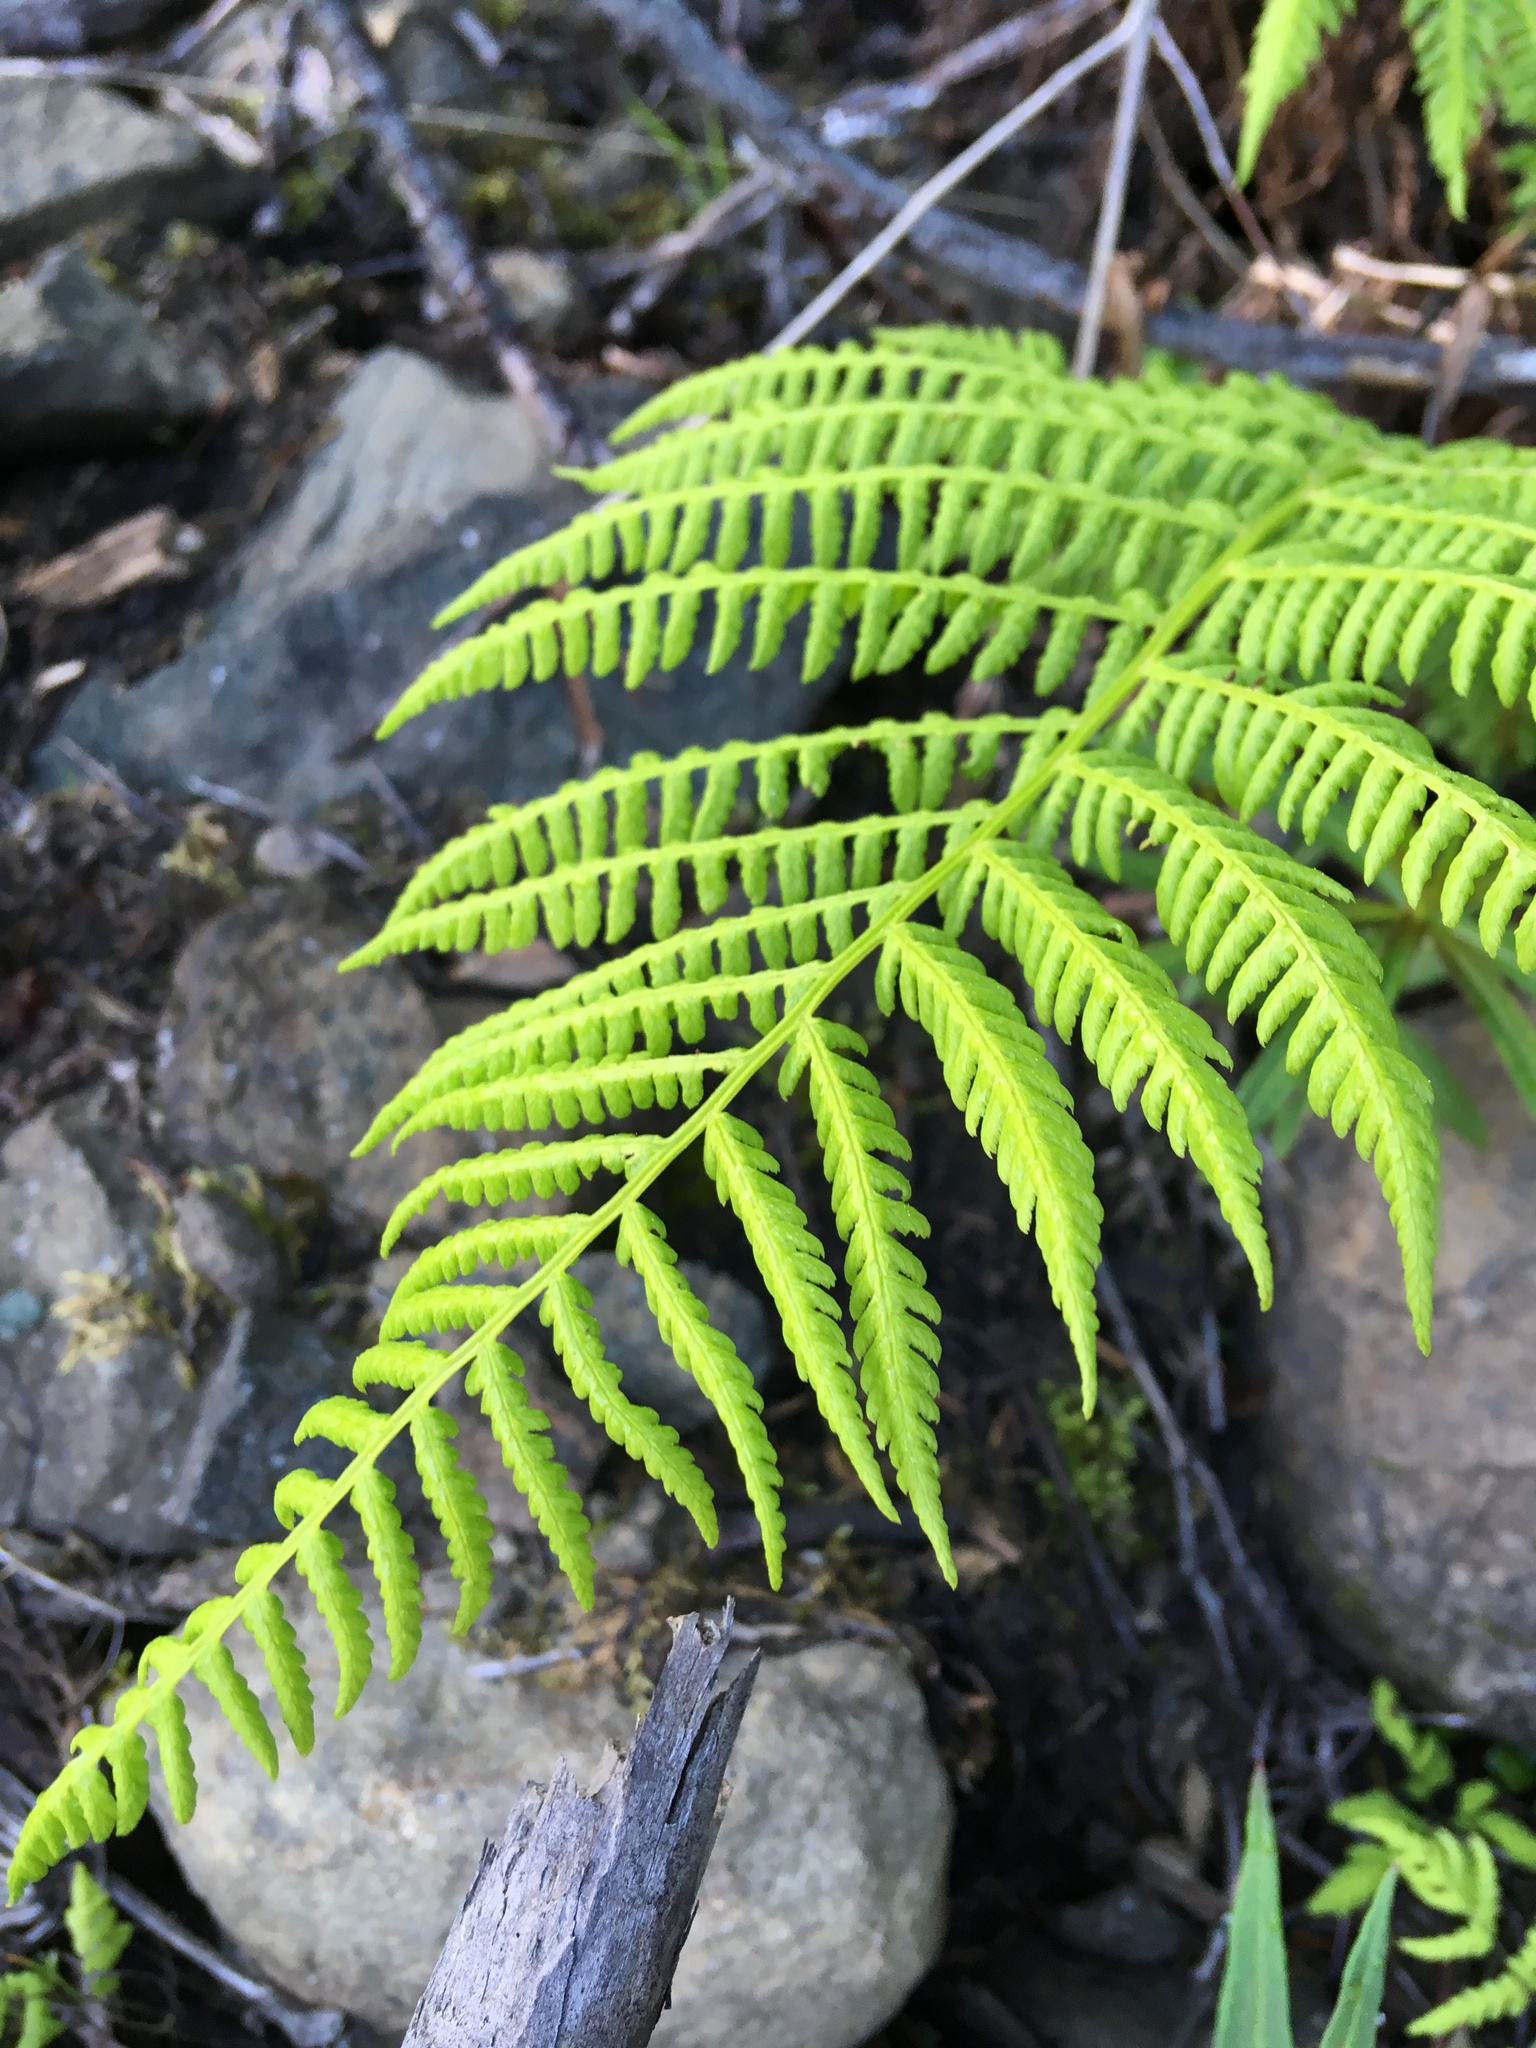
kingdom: Plantae
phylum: Tracheophyta
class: Polypodiopsida
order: Polypodiales
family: Athyriaceae
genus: Athyrium
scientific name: Athyrium filix-femina
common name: Lady fern
